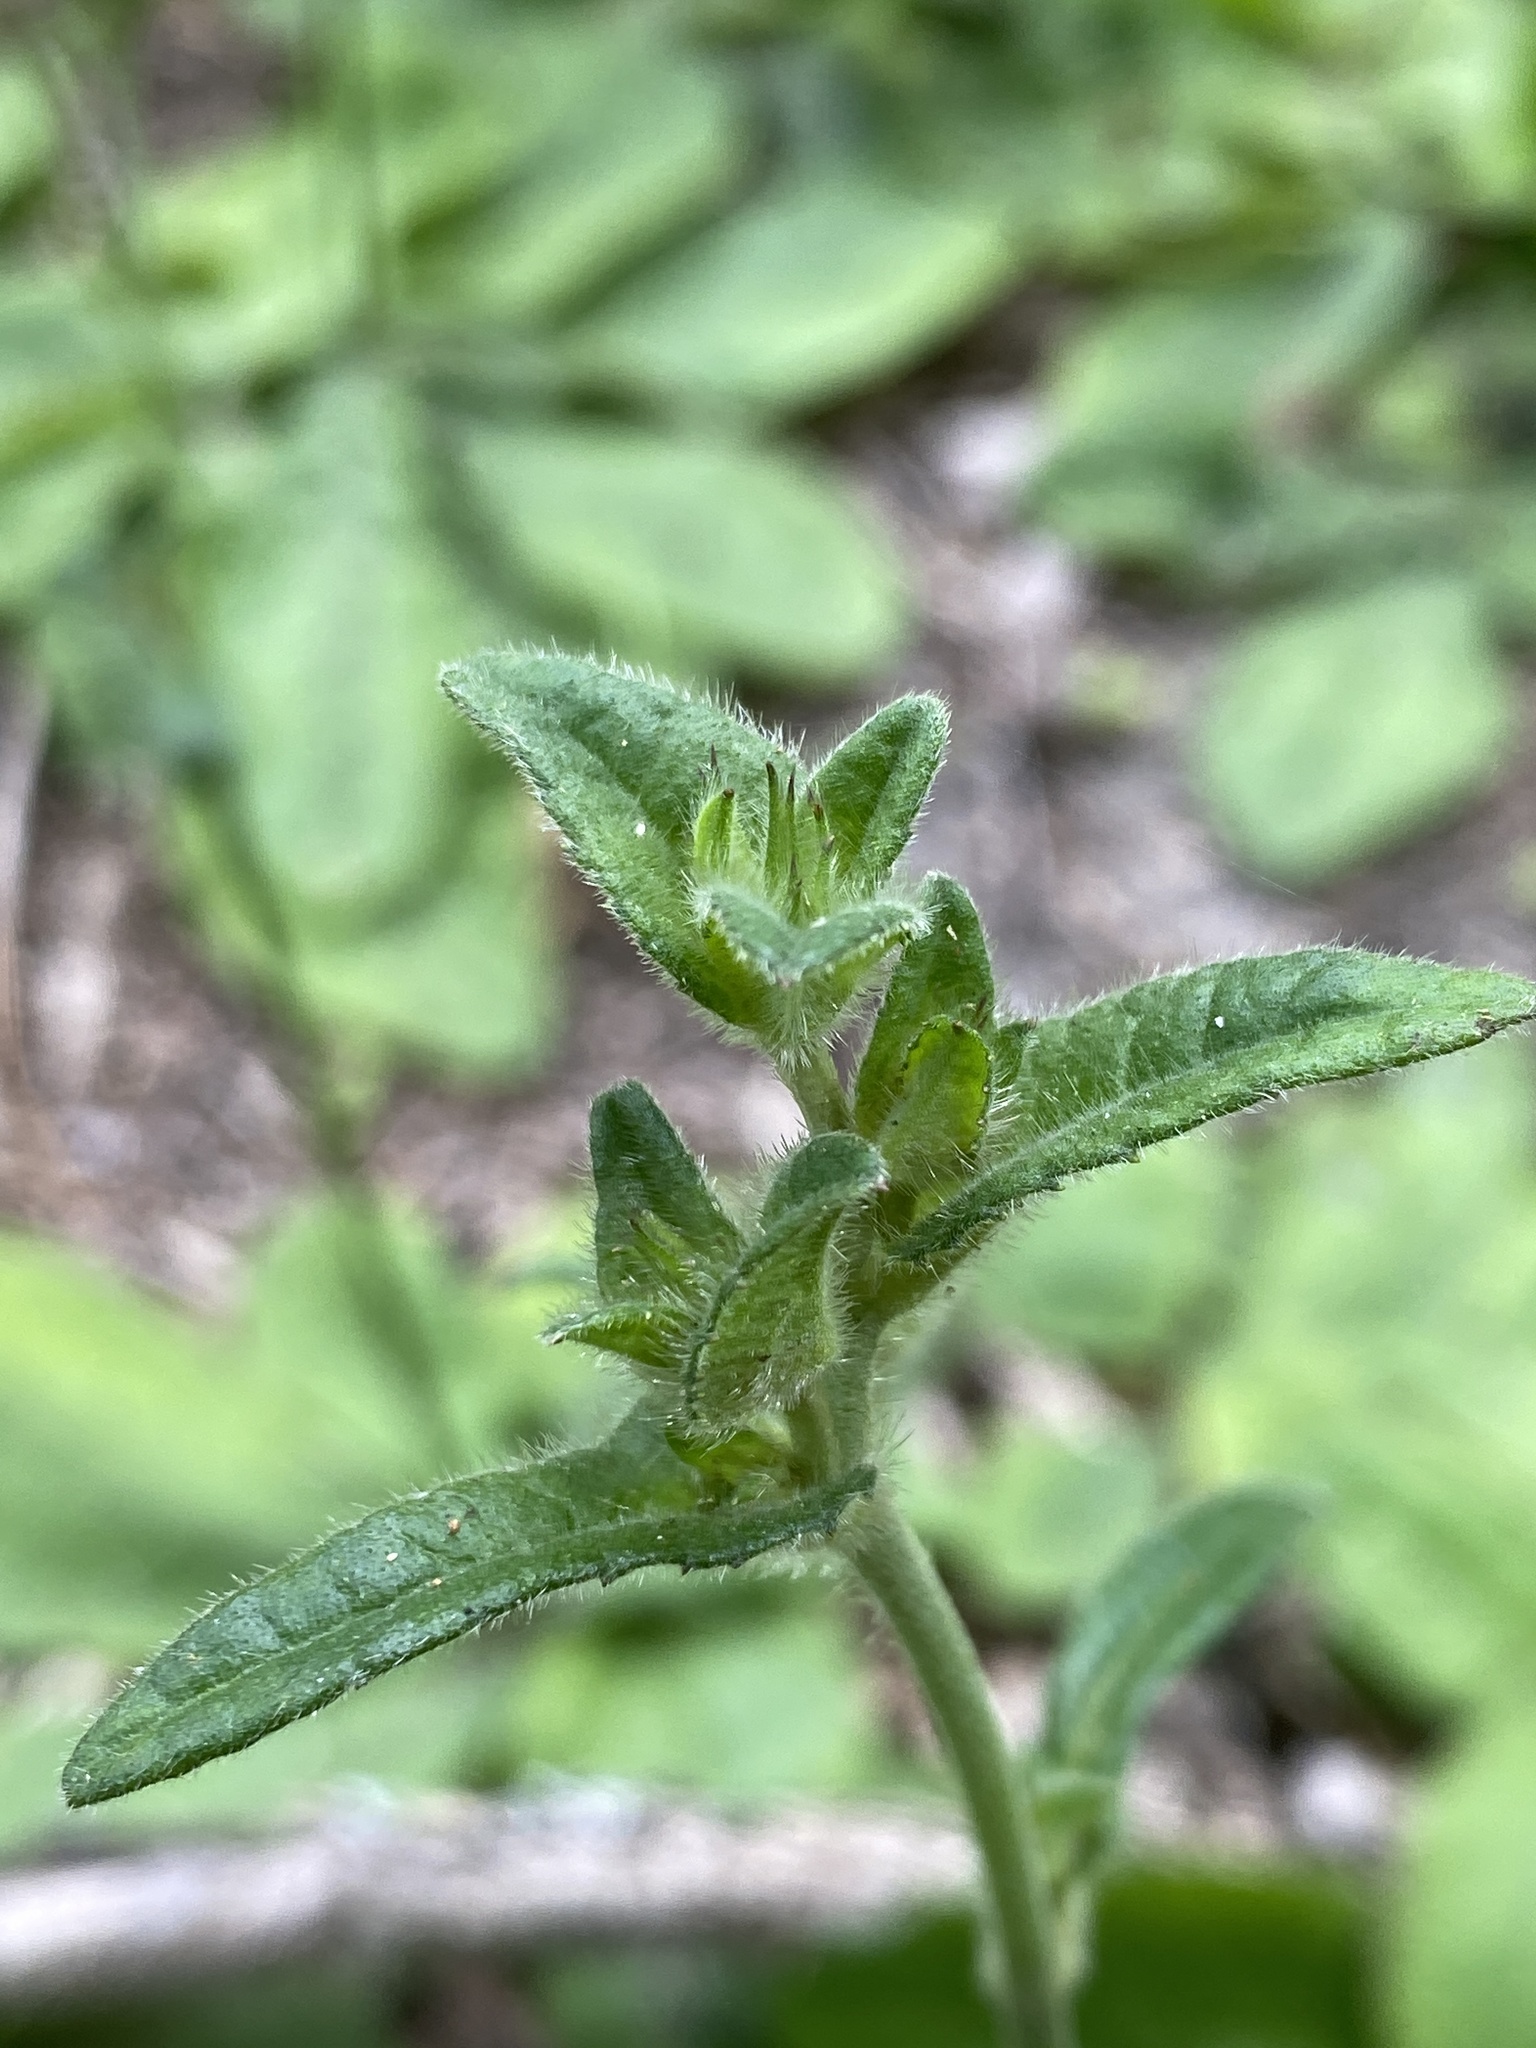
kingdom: Plantae
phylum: Tracheophyta
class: Magnoliopsida
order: Asterales
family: Asteraceae
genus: Elephantopus
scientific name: Elephantopus tomentosus
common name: Tobacco-weed
